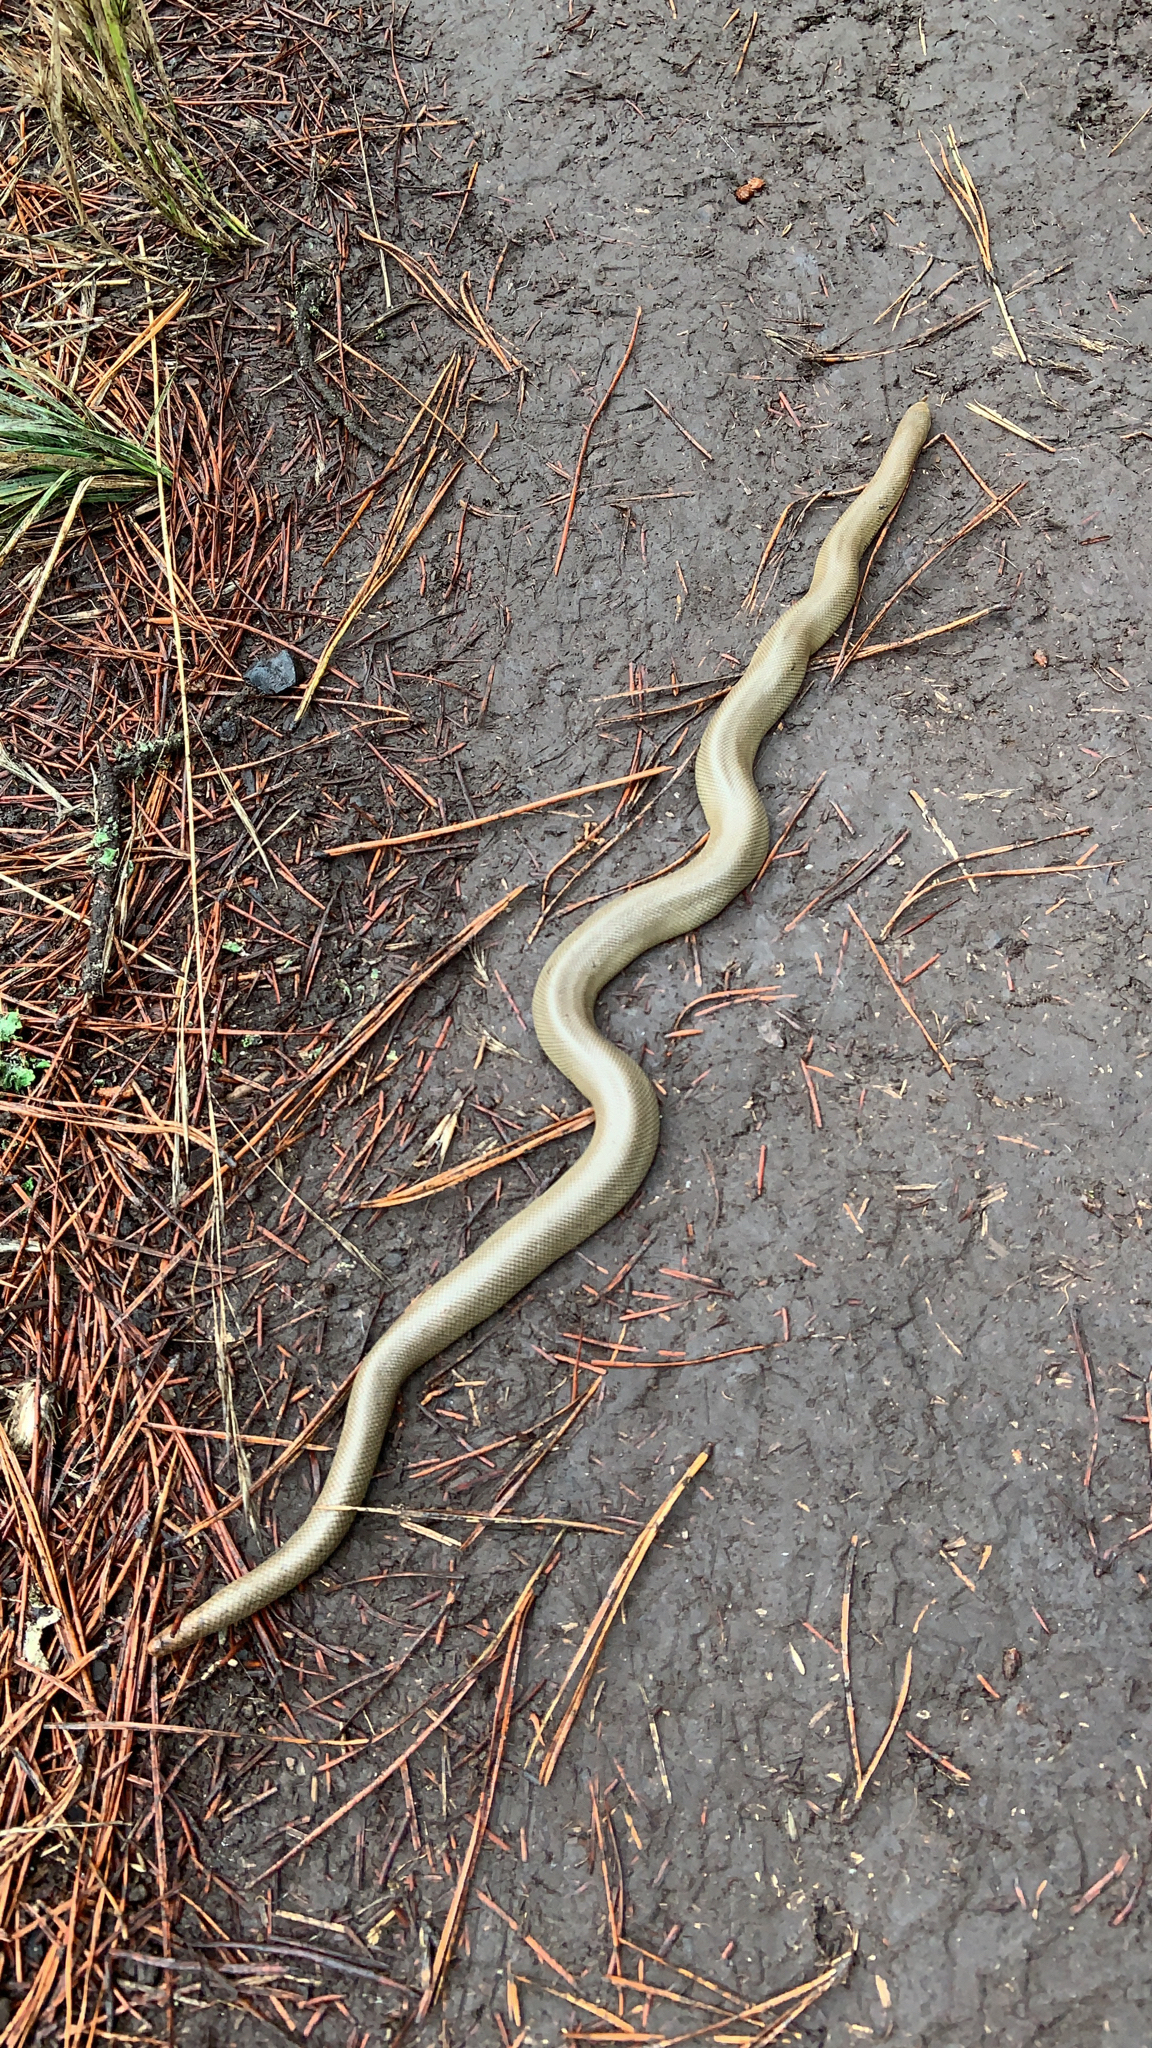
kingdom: Animalia
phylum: Chordata
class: Squamata
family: Boidae
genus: Charina
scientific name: Charina bottae
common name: Northern rubber boa
